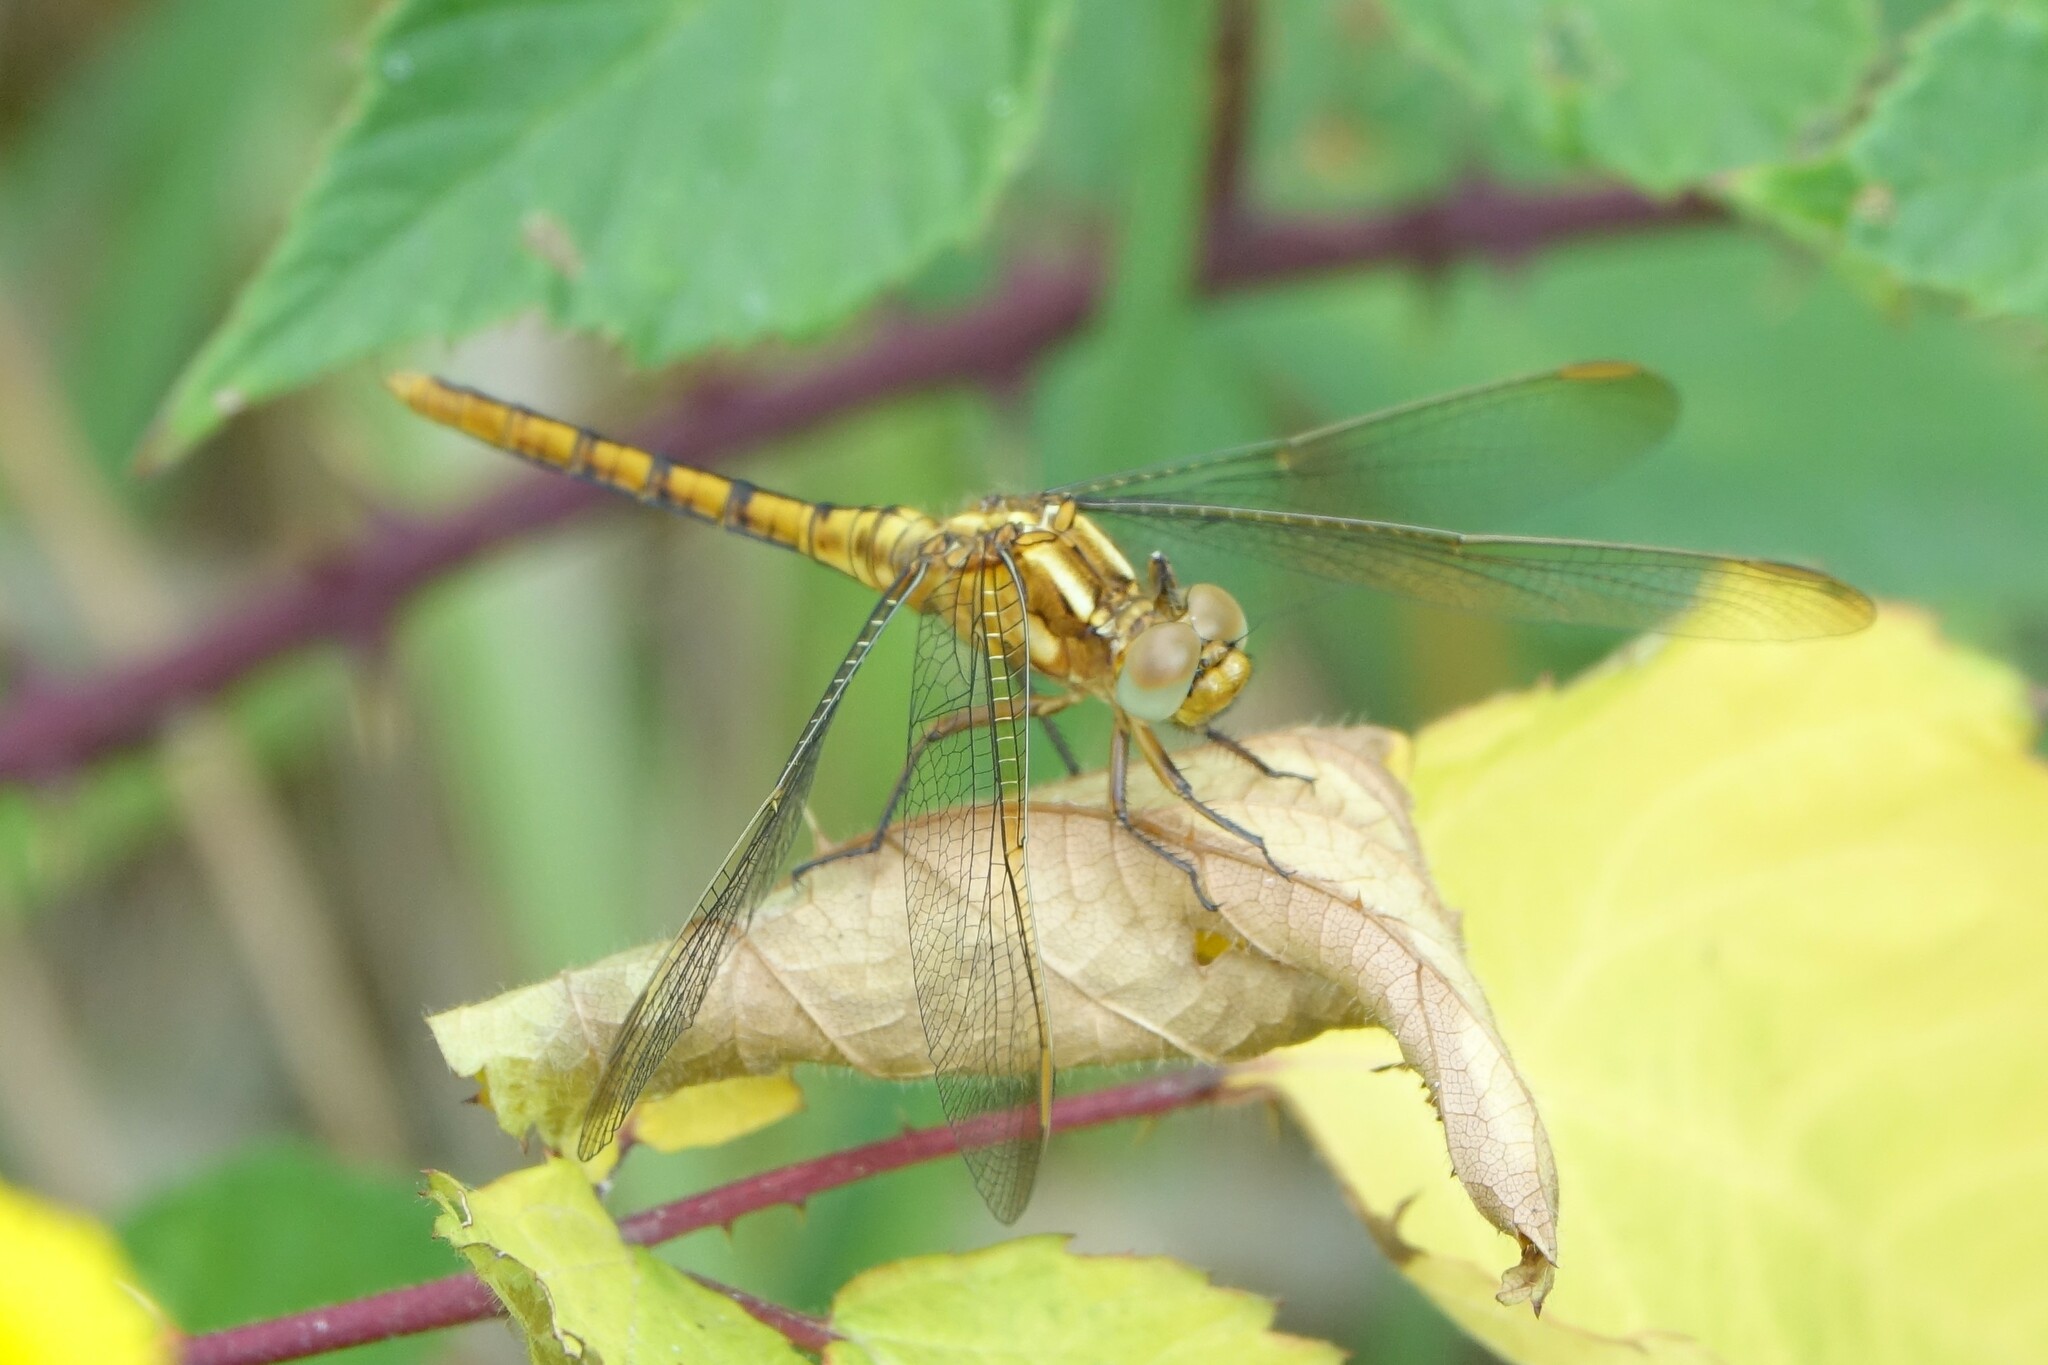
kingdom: Animalia
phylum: Arthropoda
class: Insecta
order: Odonata
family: Libellulidae
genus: Orthetrum
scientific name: Orthetrum coerulescens
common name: Keeled skimmer
